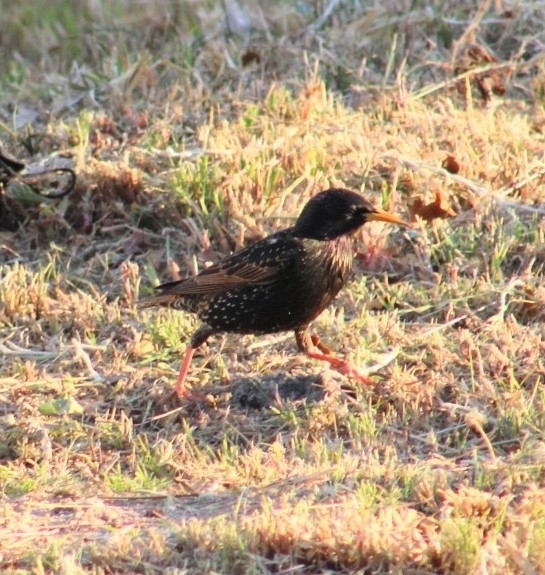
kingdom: Animalia
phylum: Chordata
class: Aves
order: Passeriformes
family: Sturnidae
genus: Sturnus
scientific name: Sturnus vulgaris
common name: Common starling
